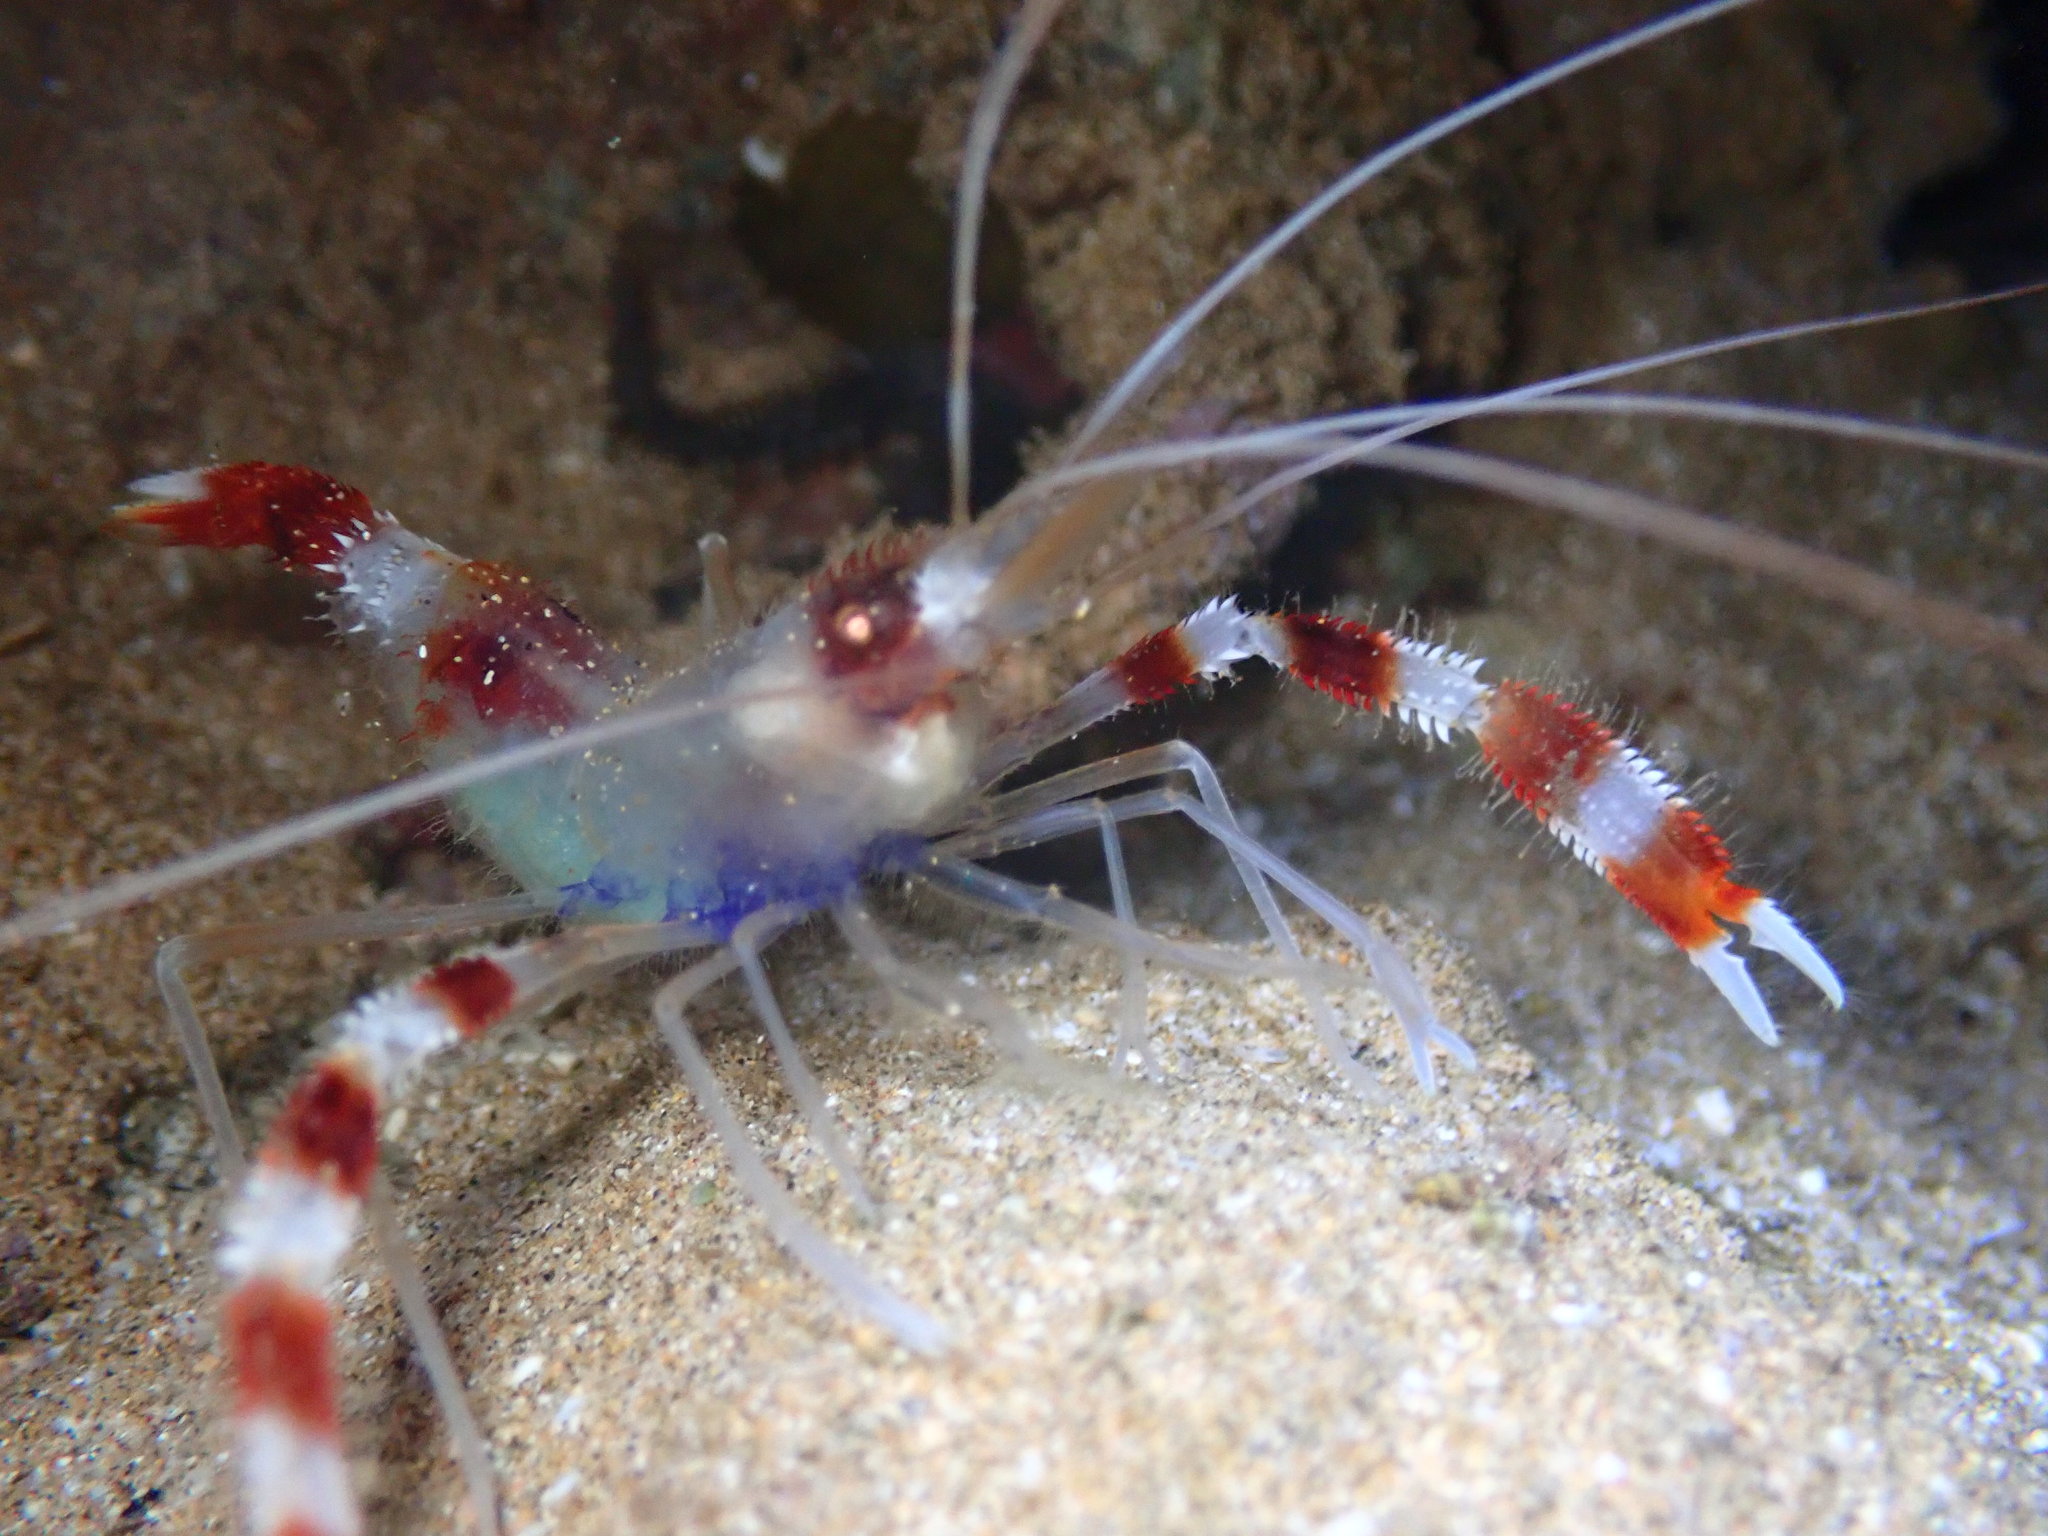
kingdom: Animalia
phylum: Arthropoda
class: Malacostraca
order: Decapoda
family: Stenopodidae
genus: Stenopus
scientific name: Stenopus hispidus
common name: Banded coral shrimp
